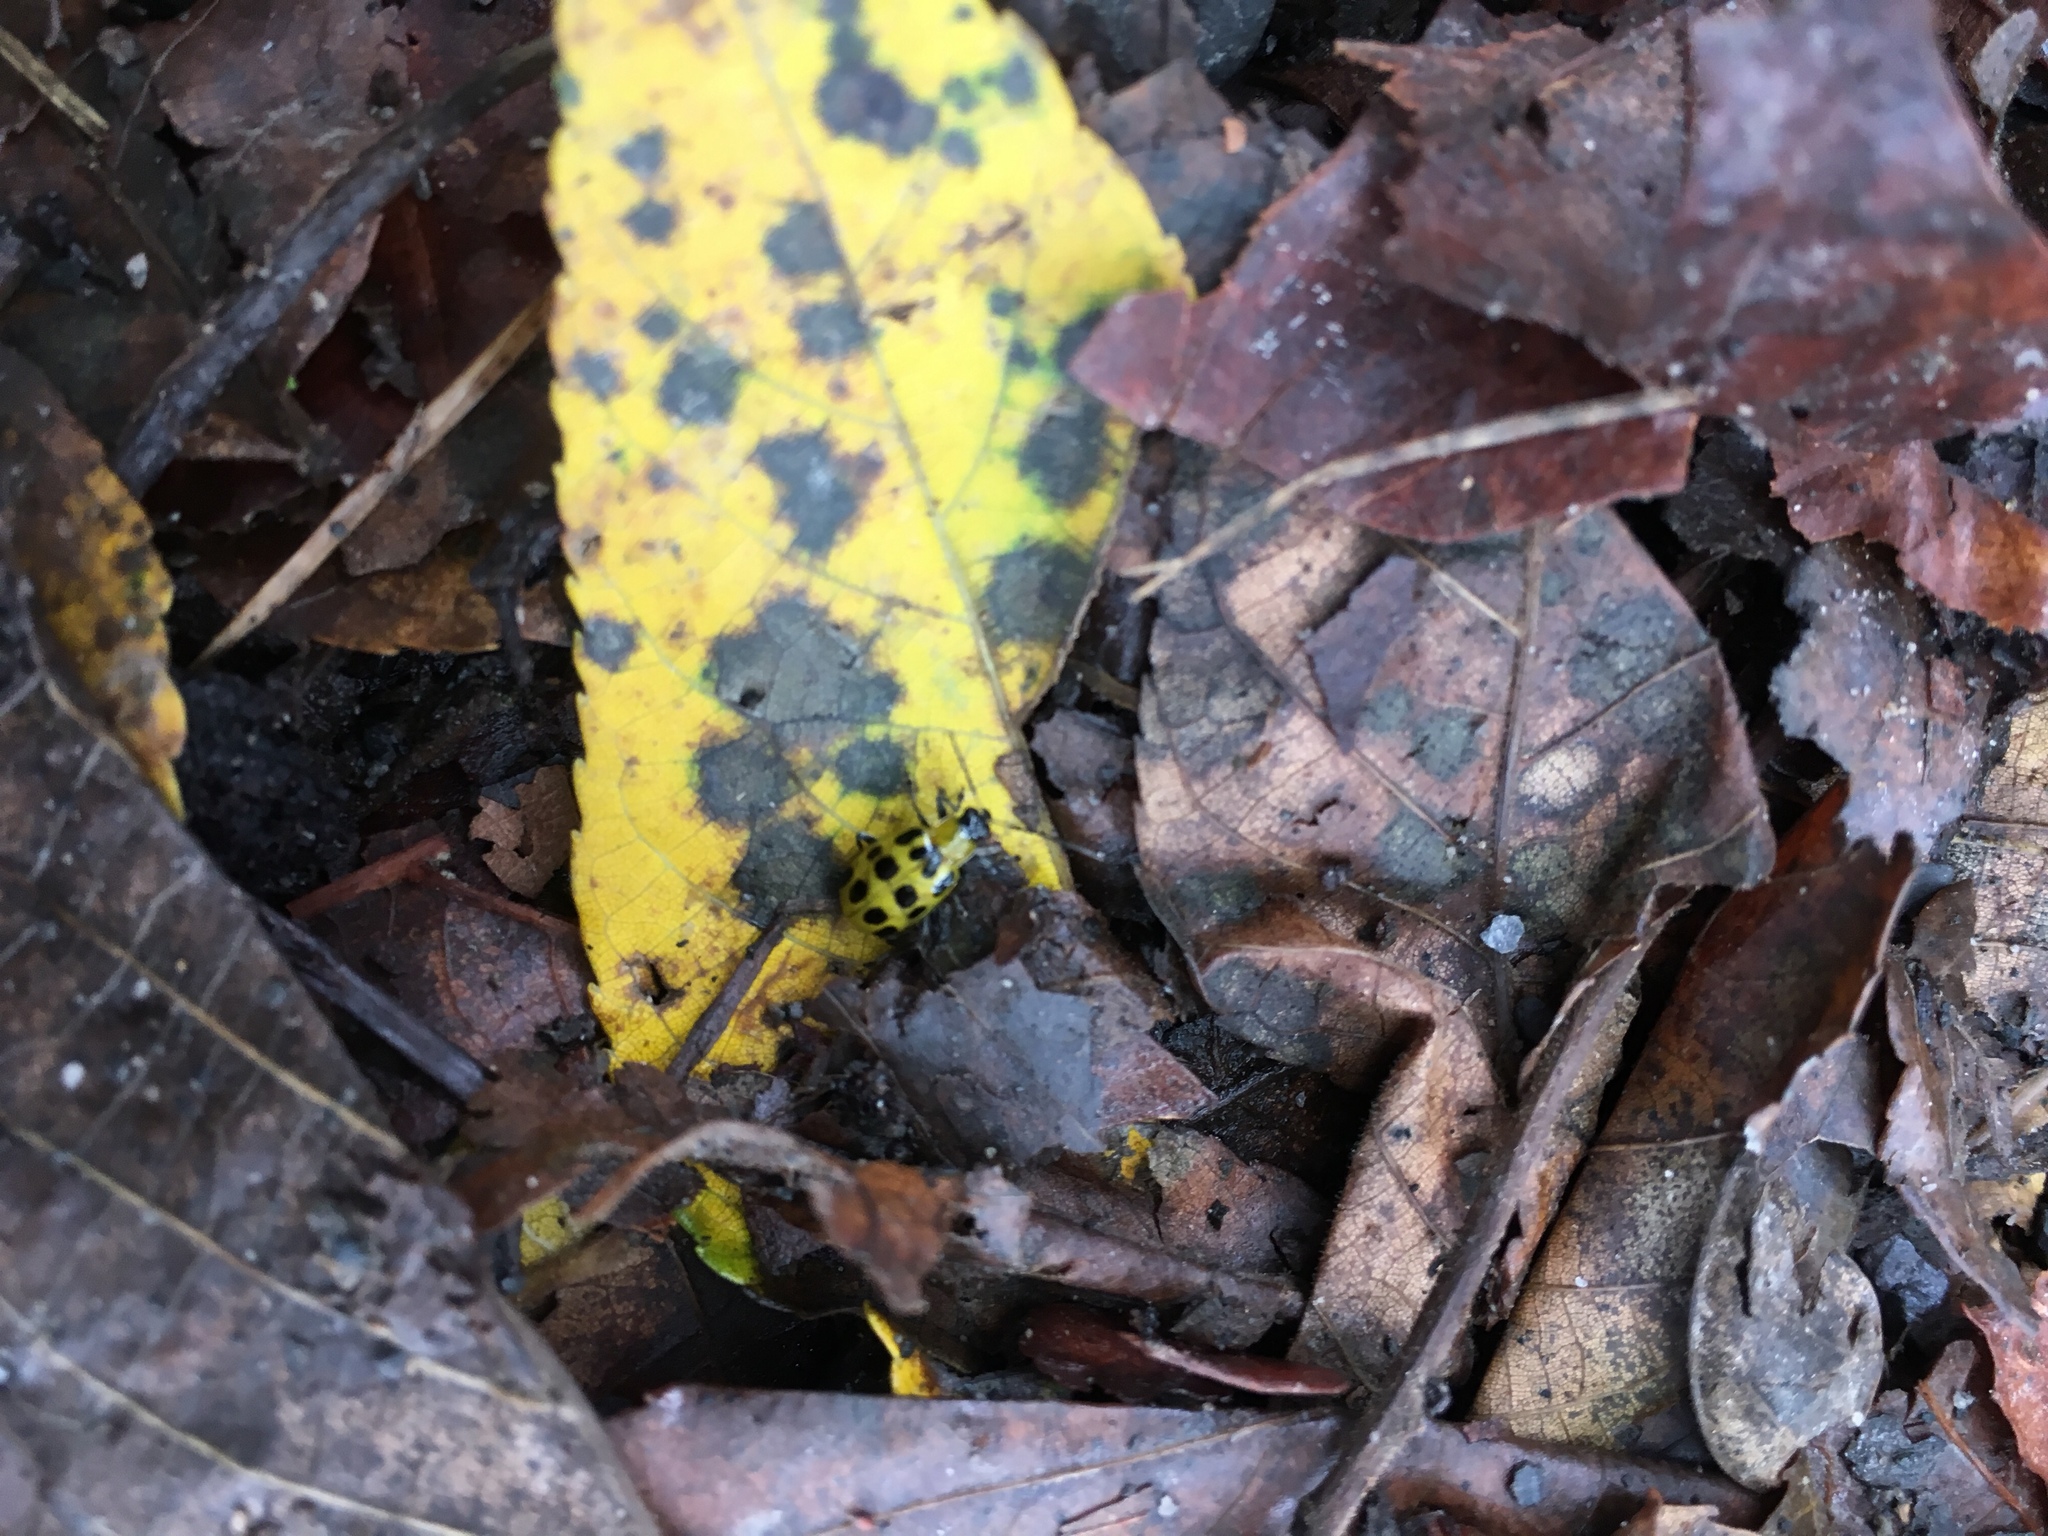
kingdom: Animalia
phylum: Arthropoda
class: Insecta
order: Coleoptera
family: Chrysomelidae
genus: Diabrotica
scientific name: Diabrotica undecimpunctata
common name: Spotted cucumber beetle
